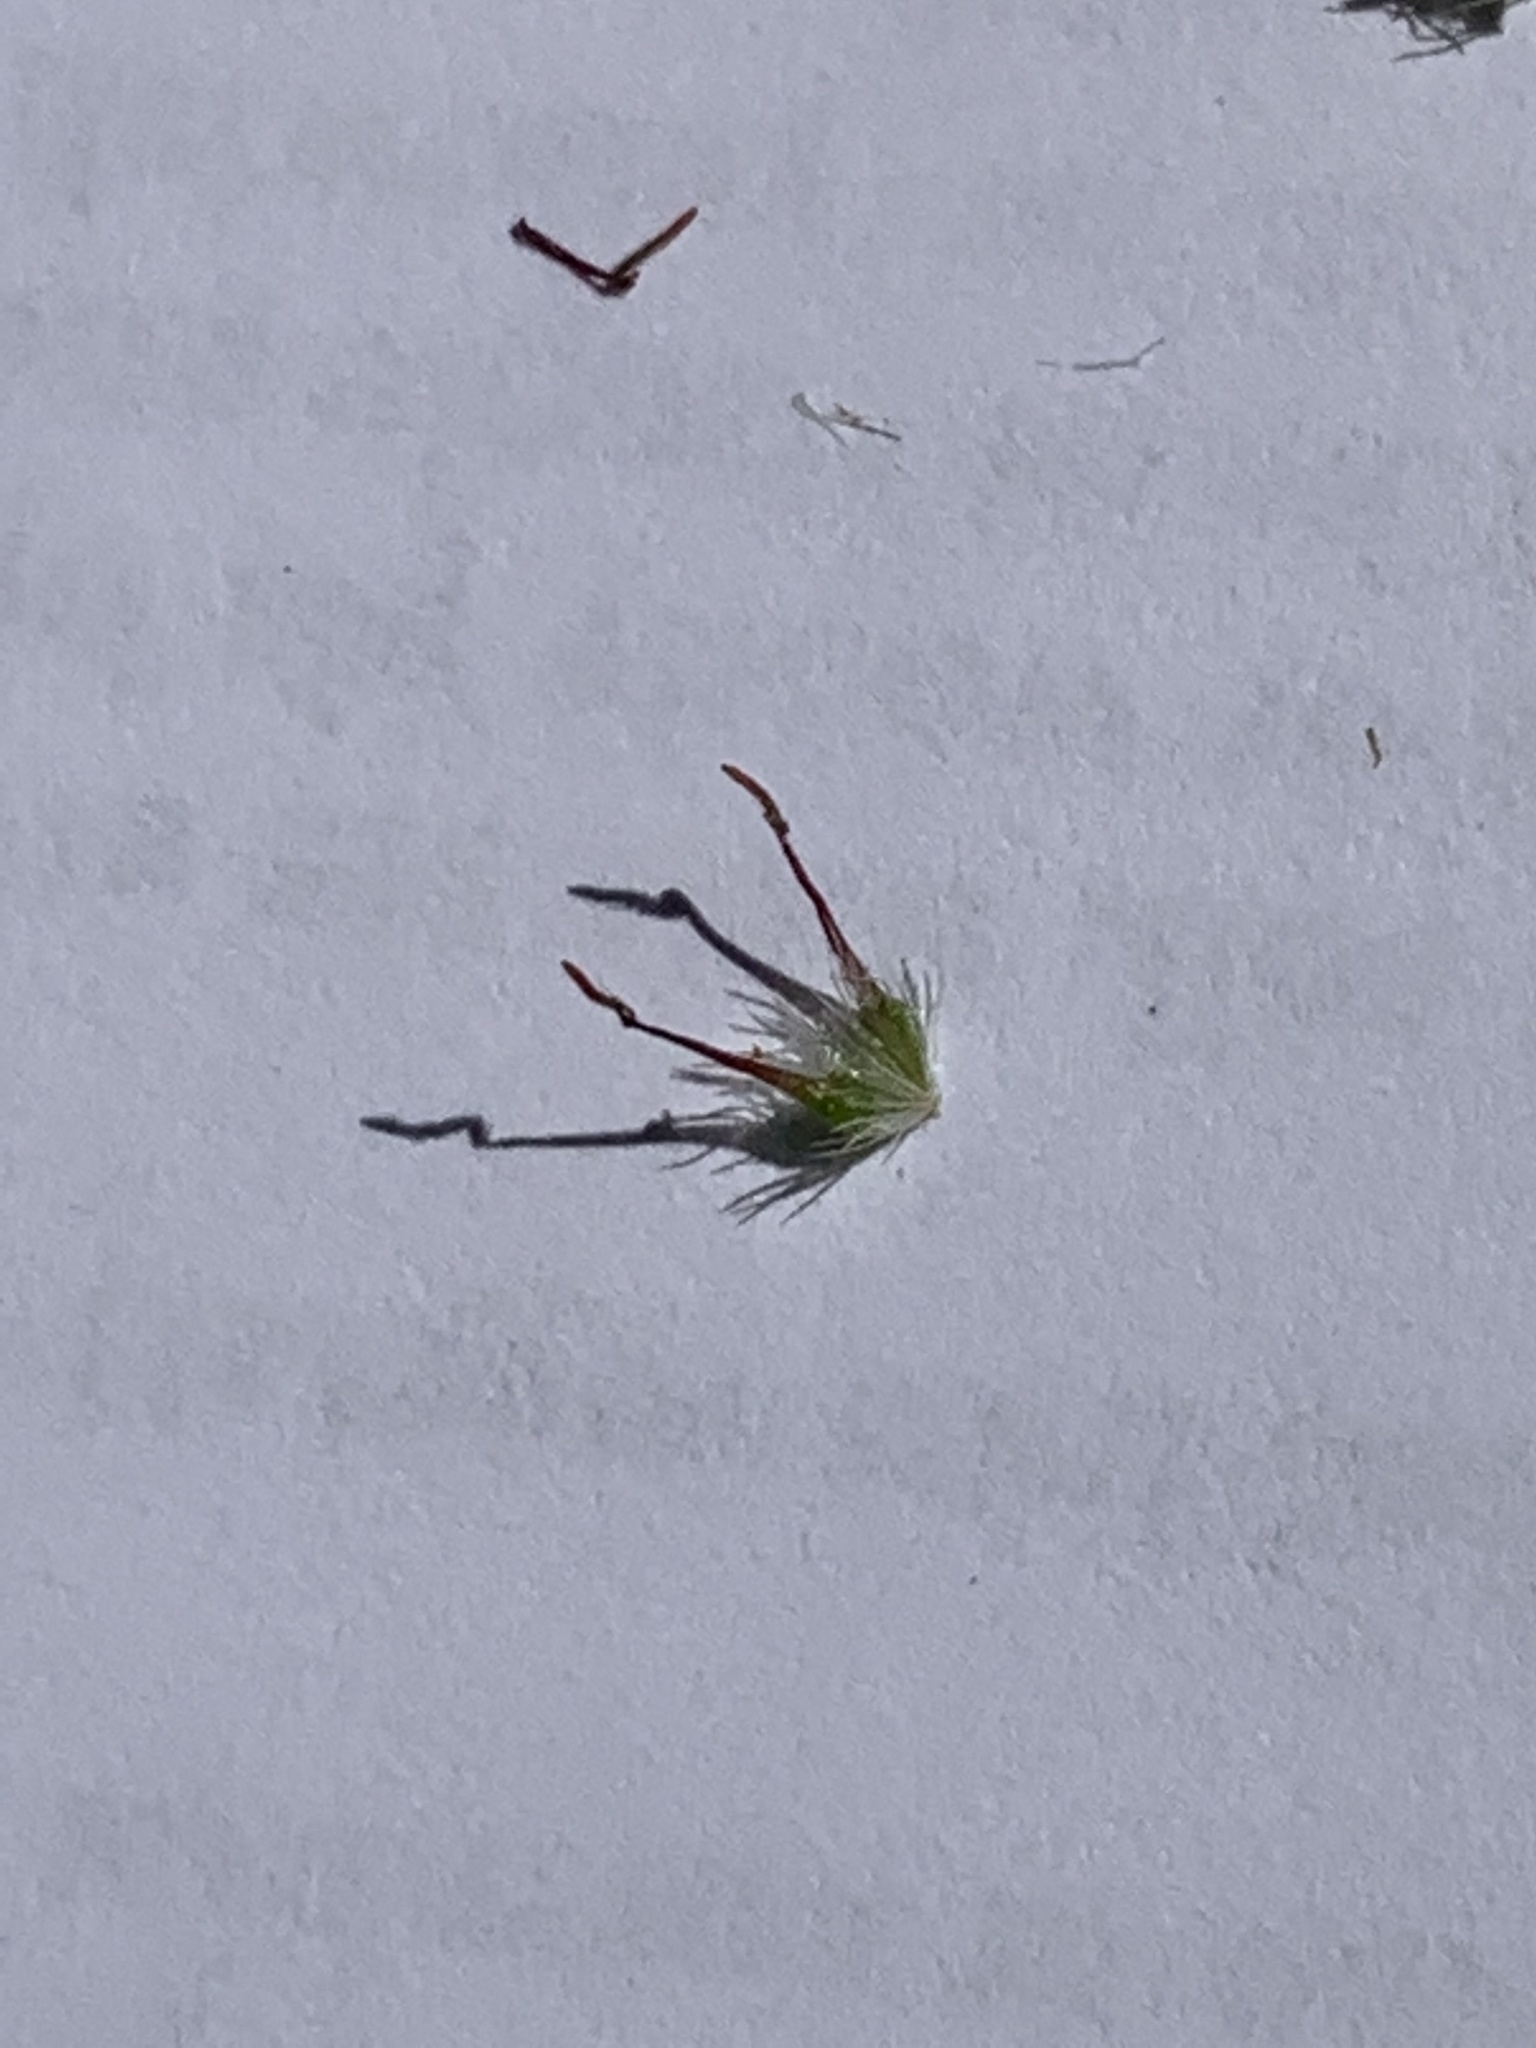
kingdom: Plantae
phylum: Tracheophyta
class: Magnoliopsida
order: Rosales
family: Rosaceae
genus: Geum
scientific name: Geum urbanum
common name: Wood avens
